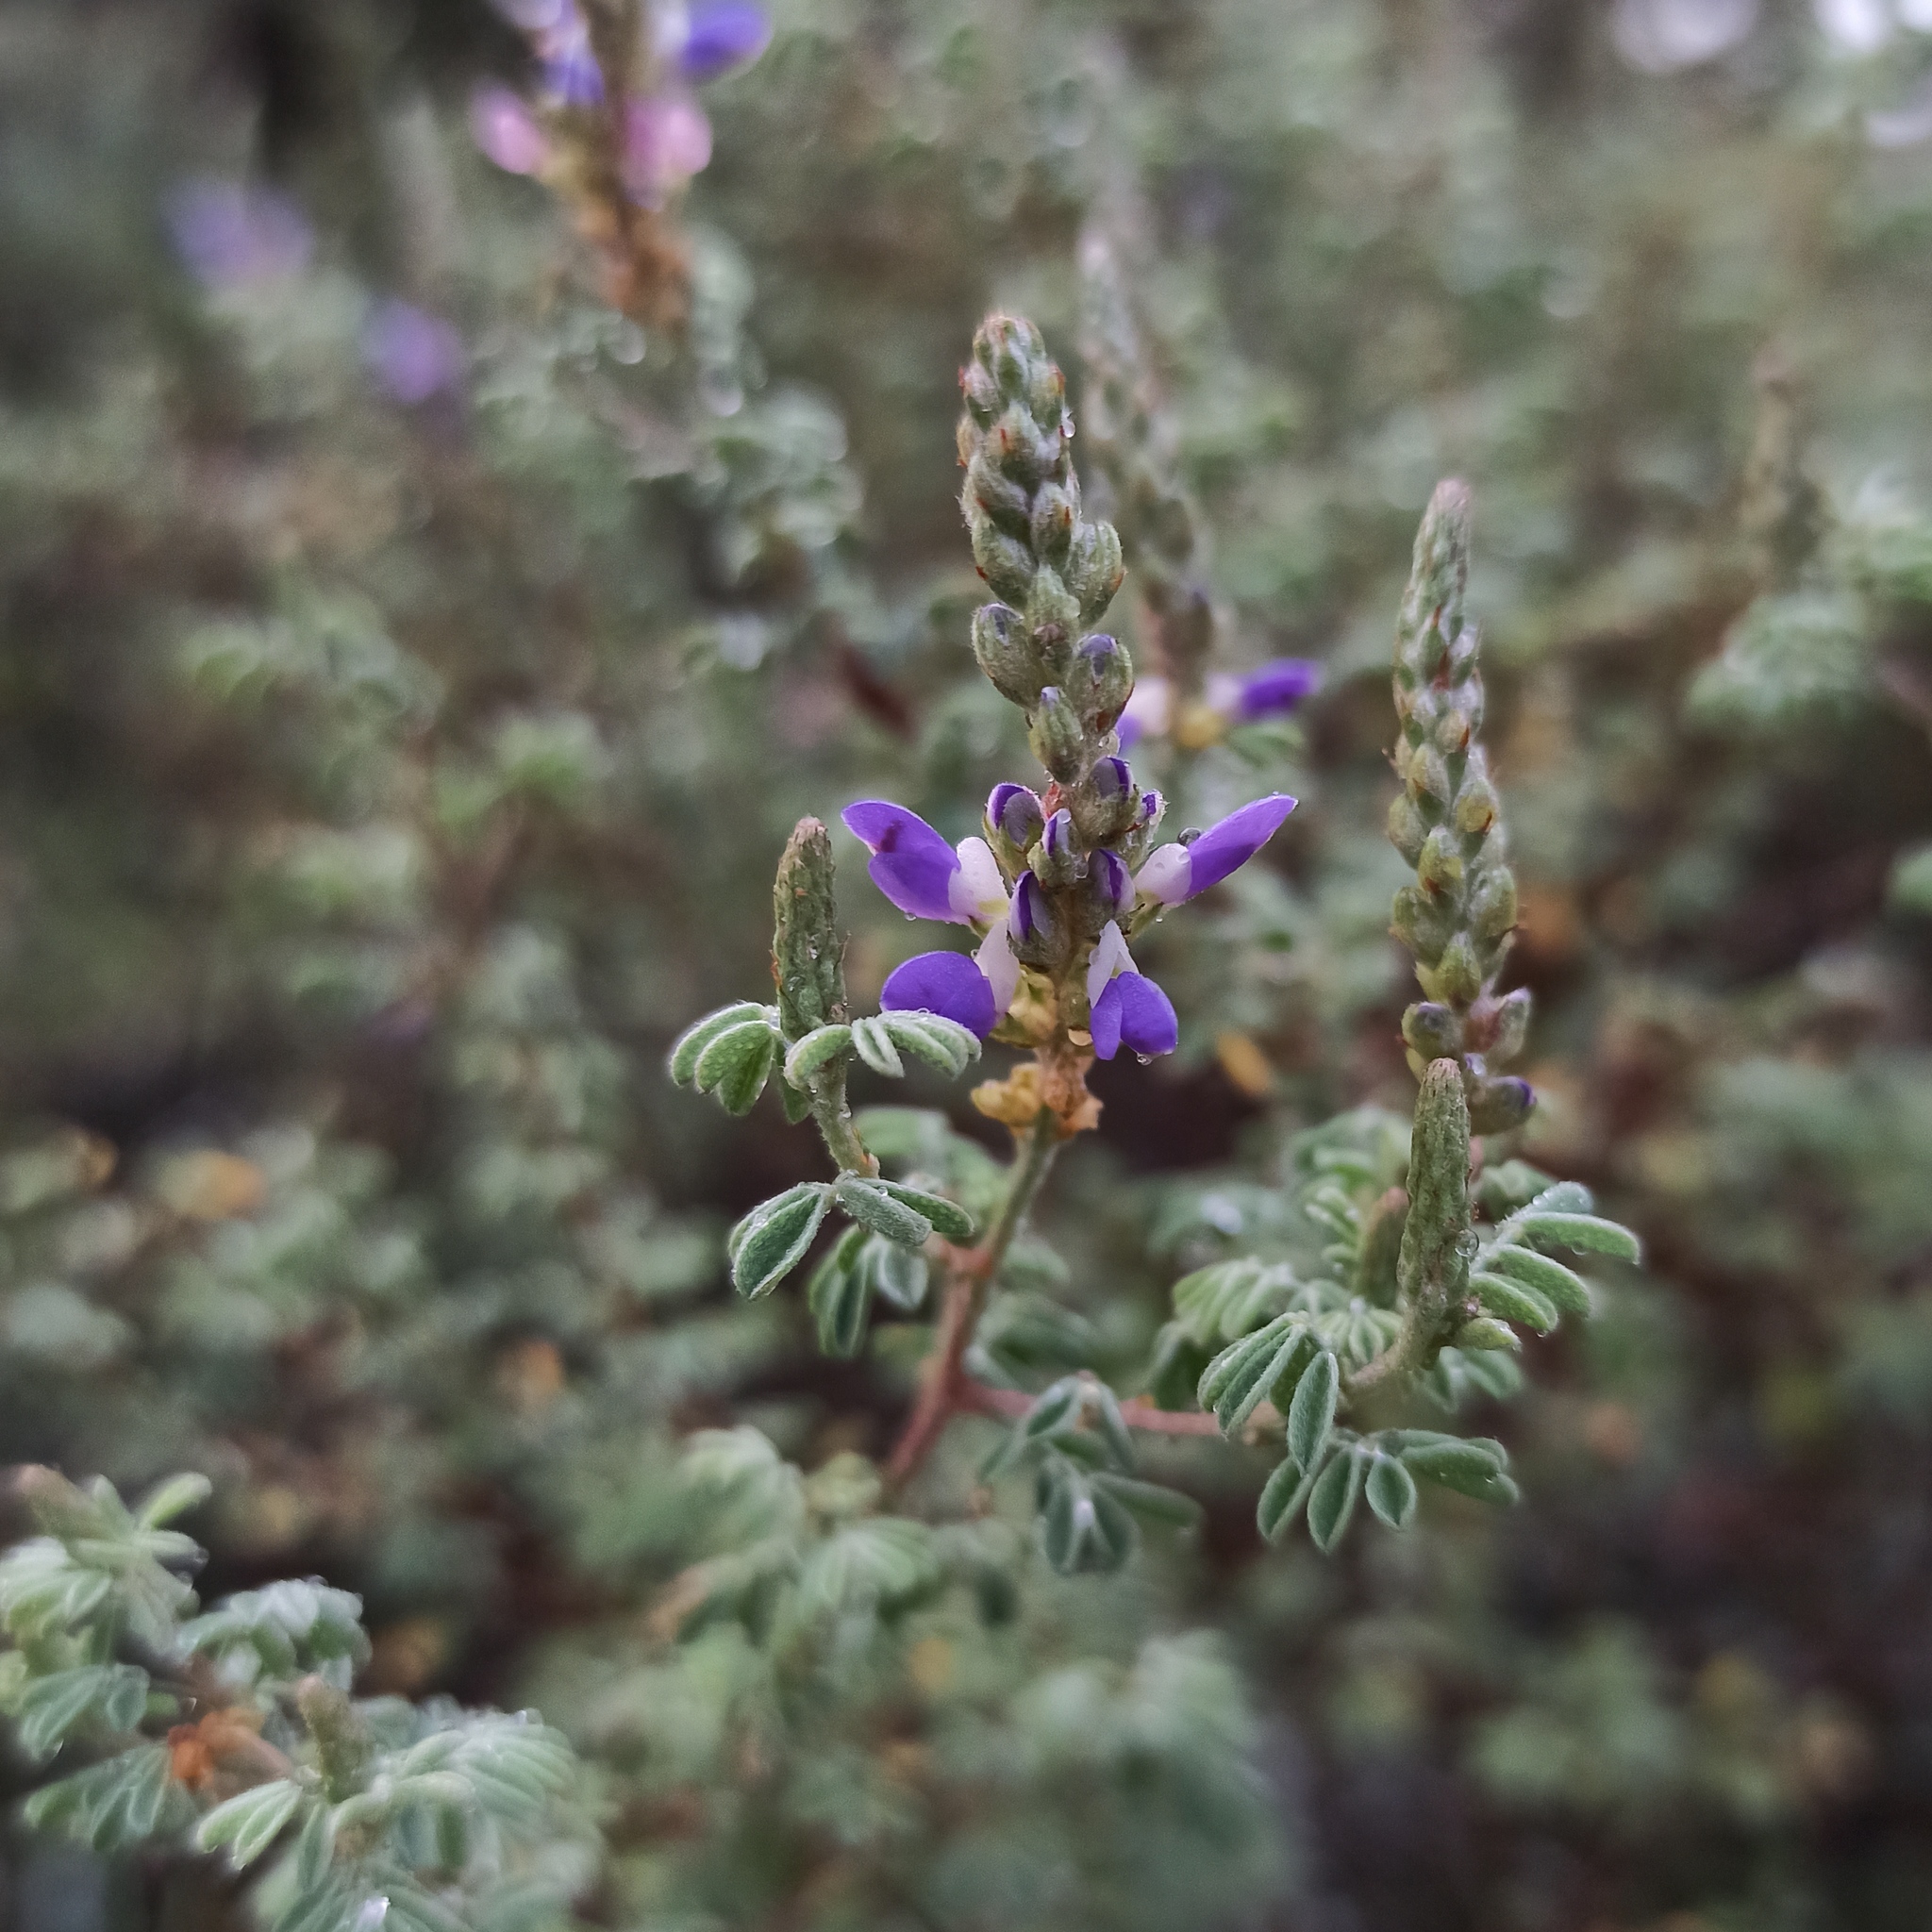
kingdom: Plantae
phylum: Tracheophyta
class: Magnoliopsida
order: Fabales
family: Fabaceae
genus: Dalea
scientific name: Dalea bicolor
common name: Silver prairie-clover
